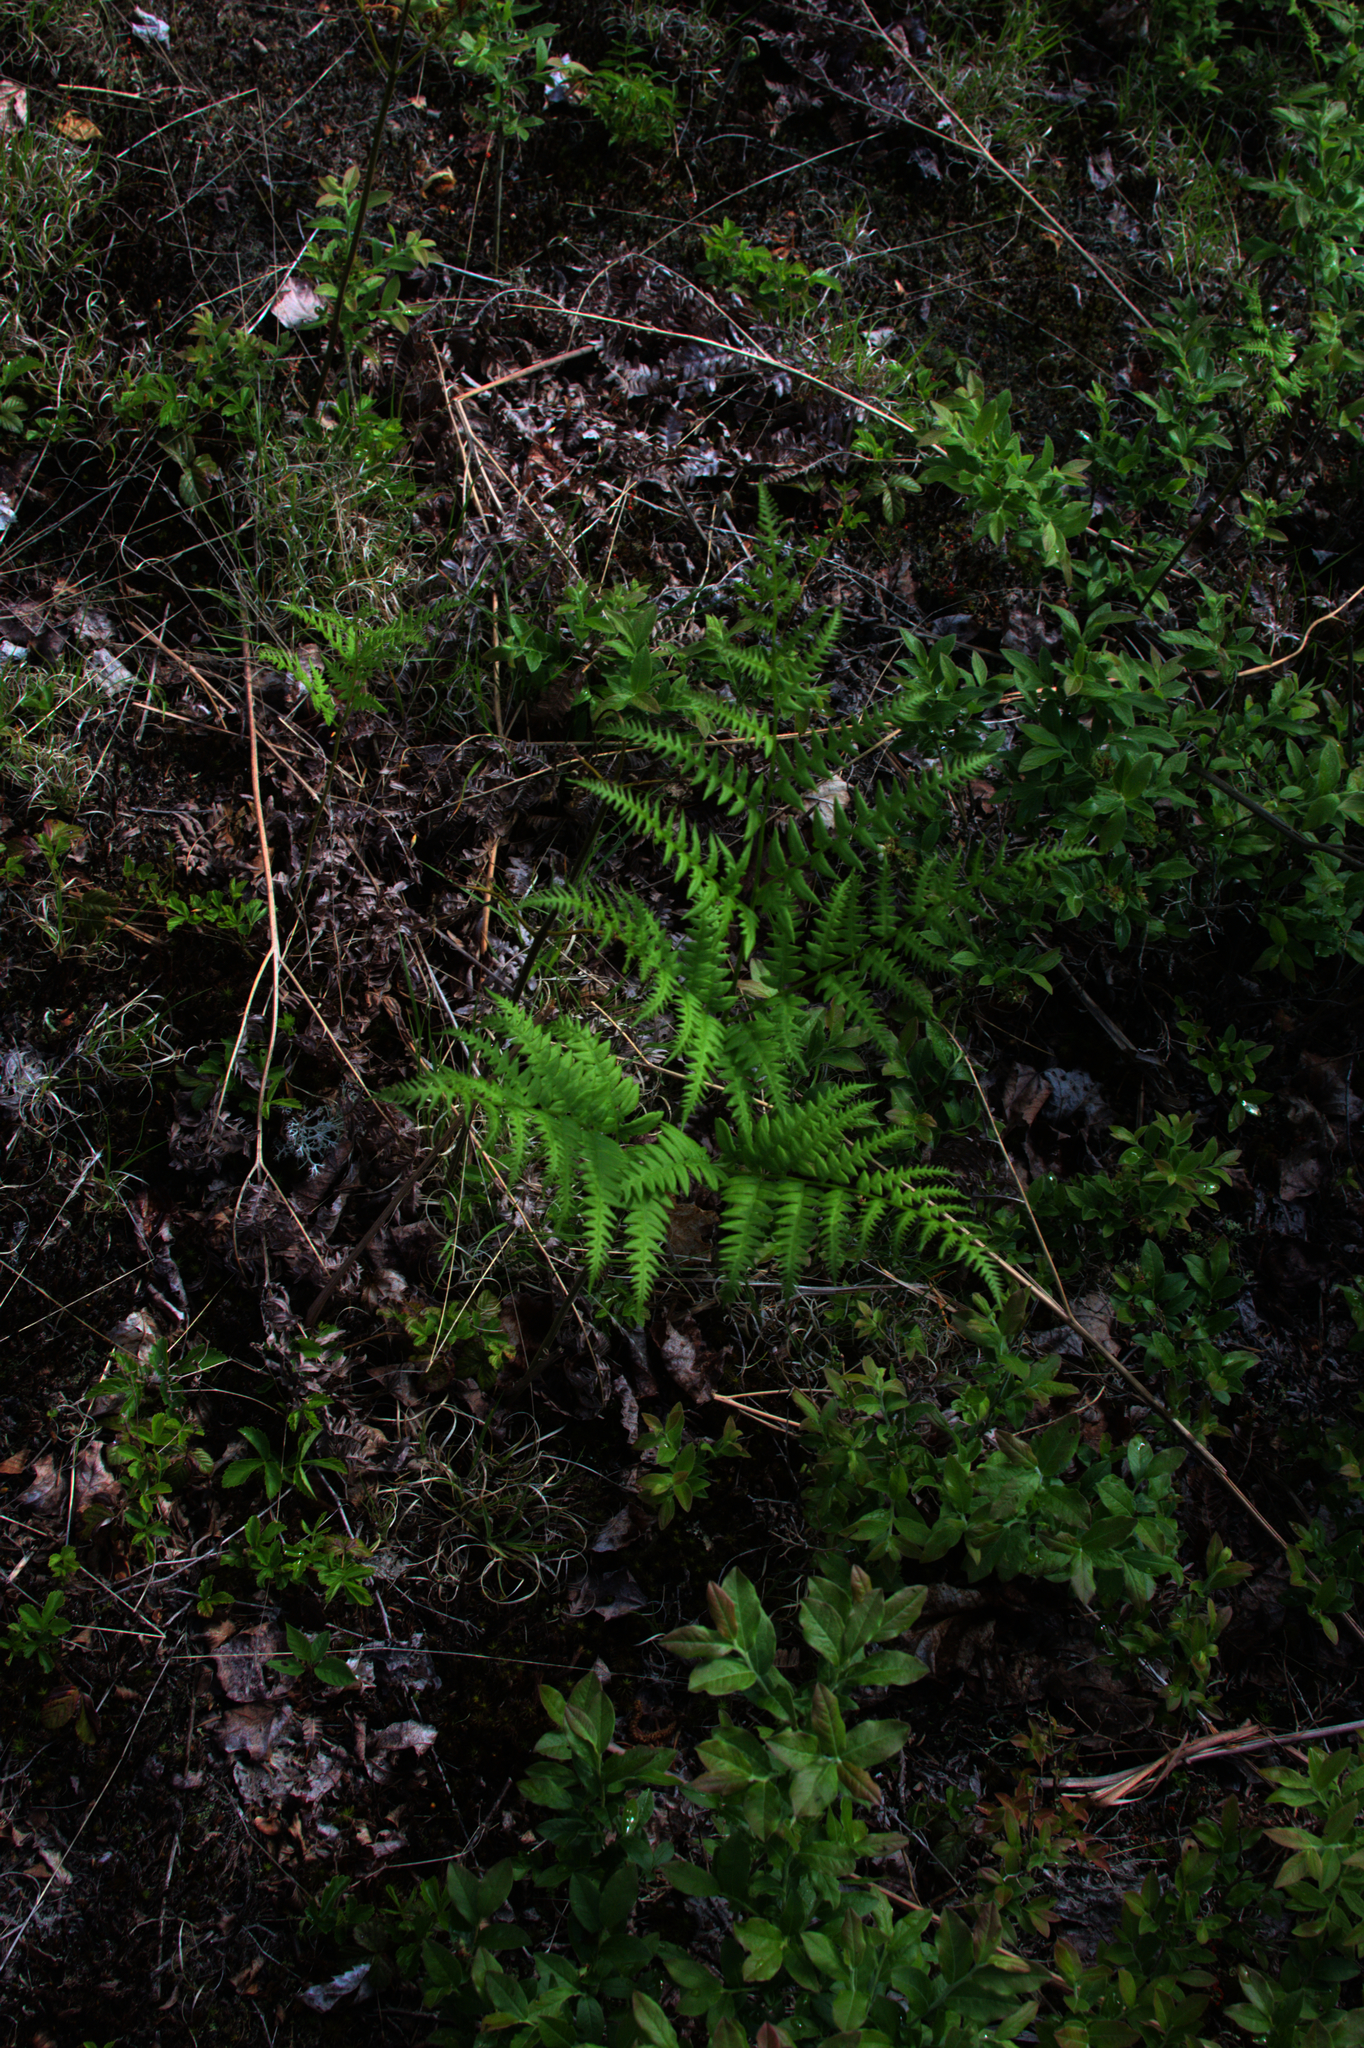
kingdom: Plantae
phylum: Tracheophyta
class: Polypodiopsida
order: Polypodiales
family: Dennstaedtiaceae
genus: Pteridium
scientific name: Pteridium aquilinum
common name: Bracken
